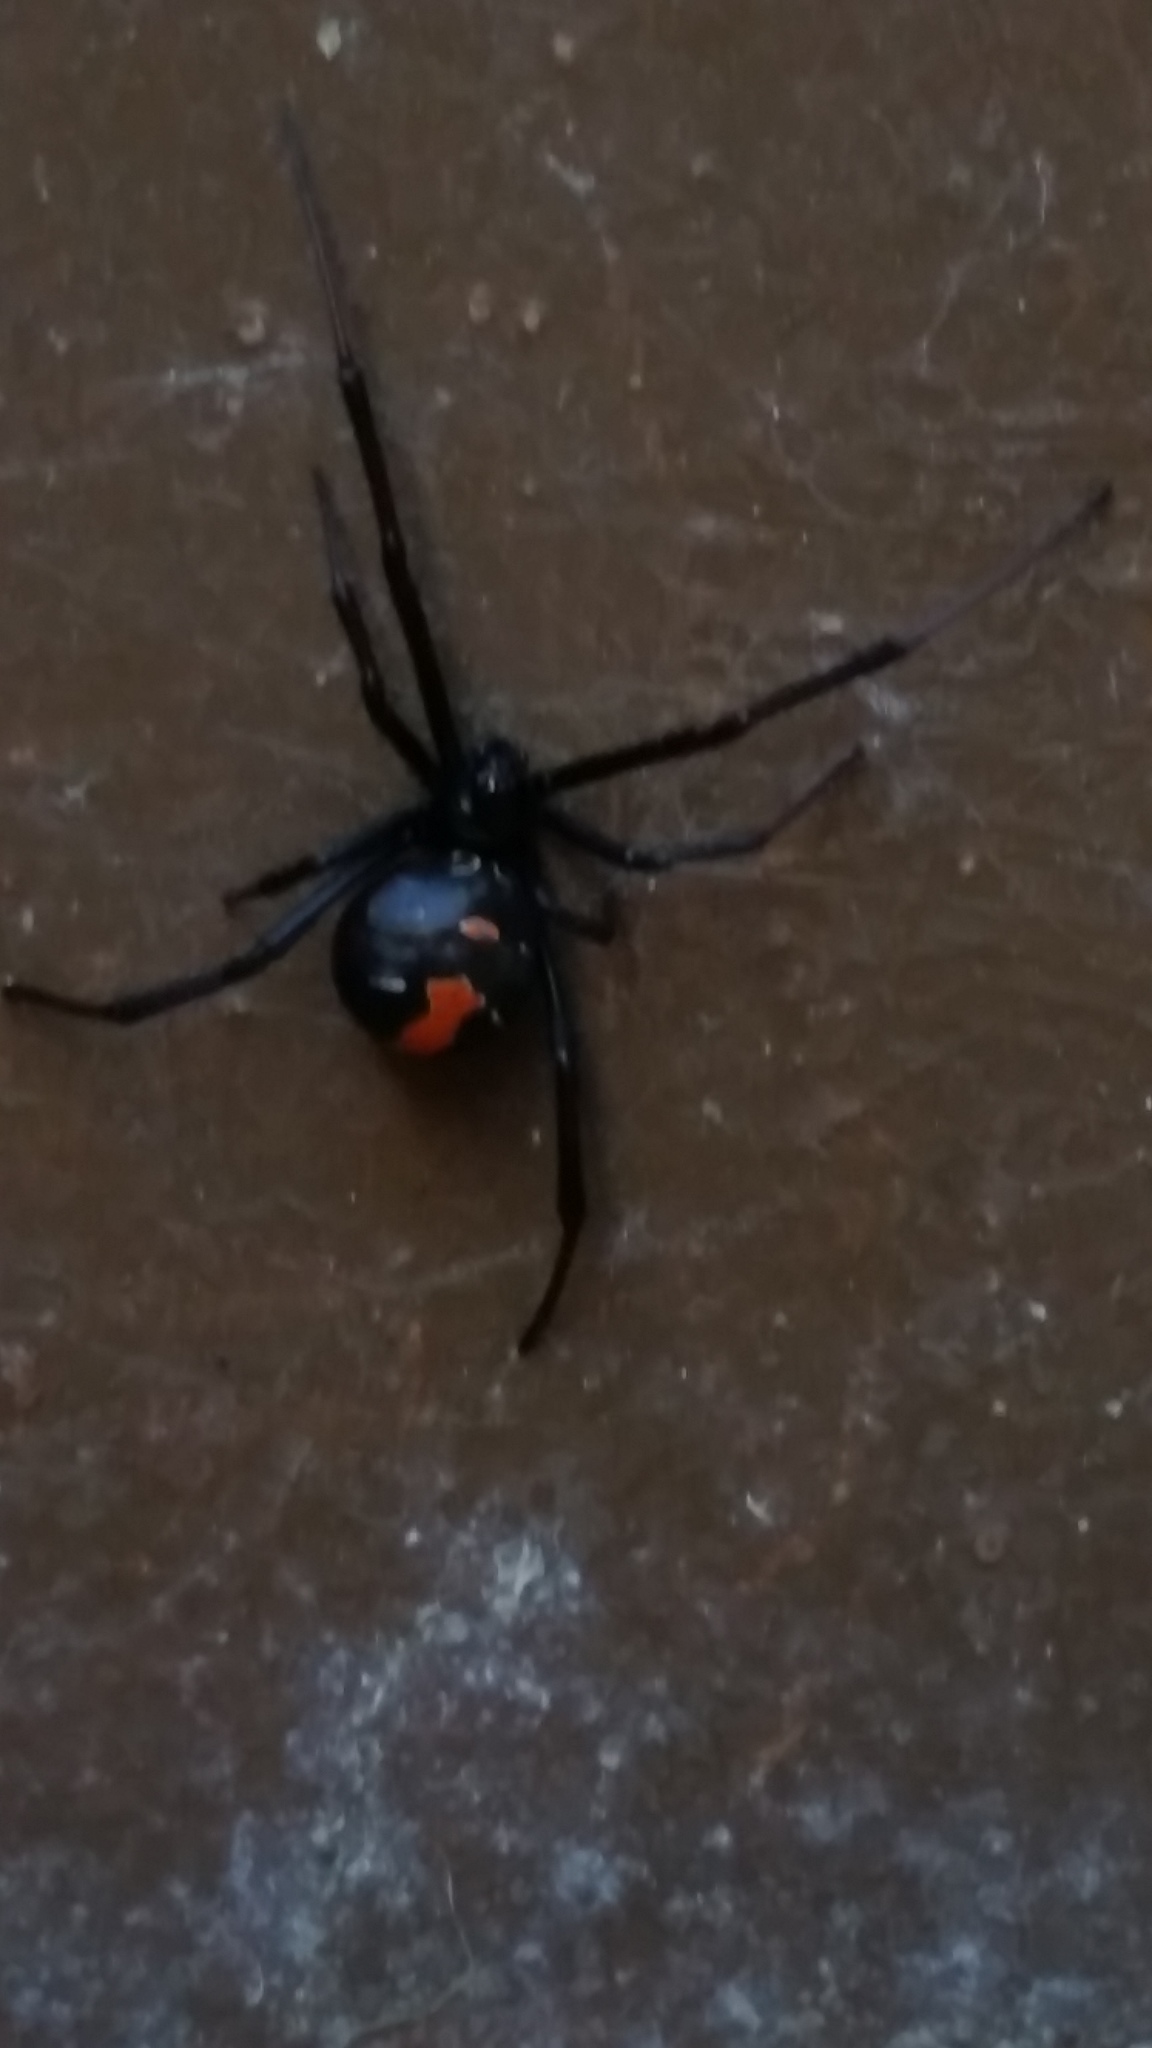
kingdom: Animalia
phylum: Arthropoda
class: Arachnida
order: Araneae
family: Theridiidae
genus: Latrodectus
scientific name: Latrodectus hasselti
